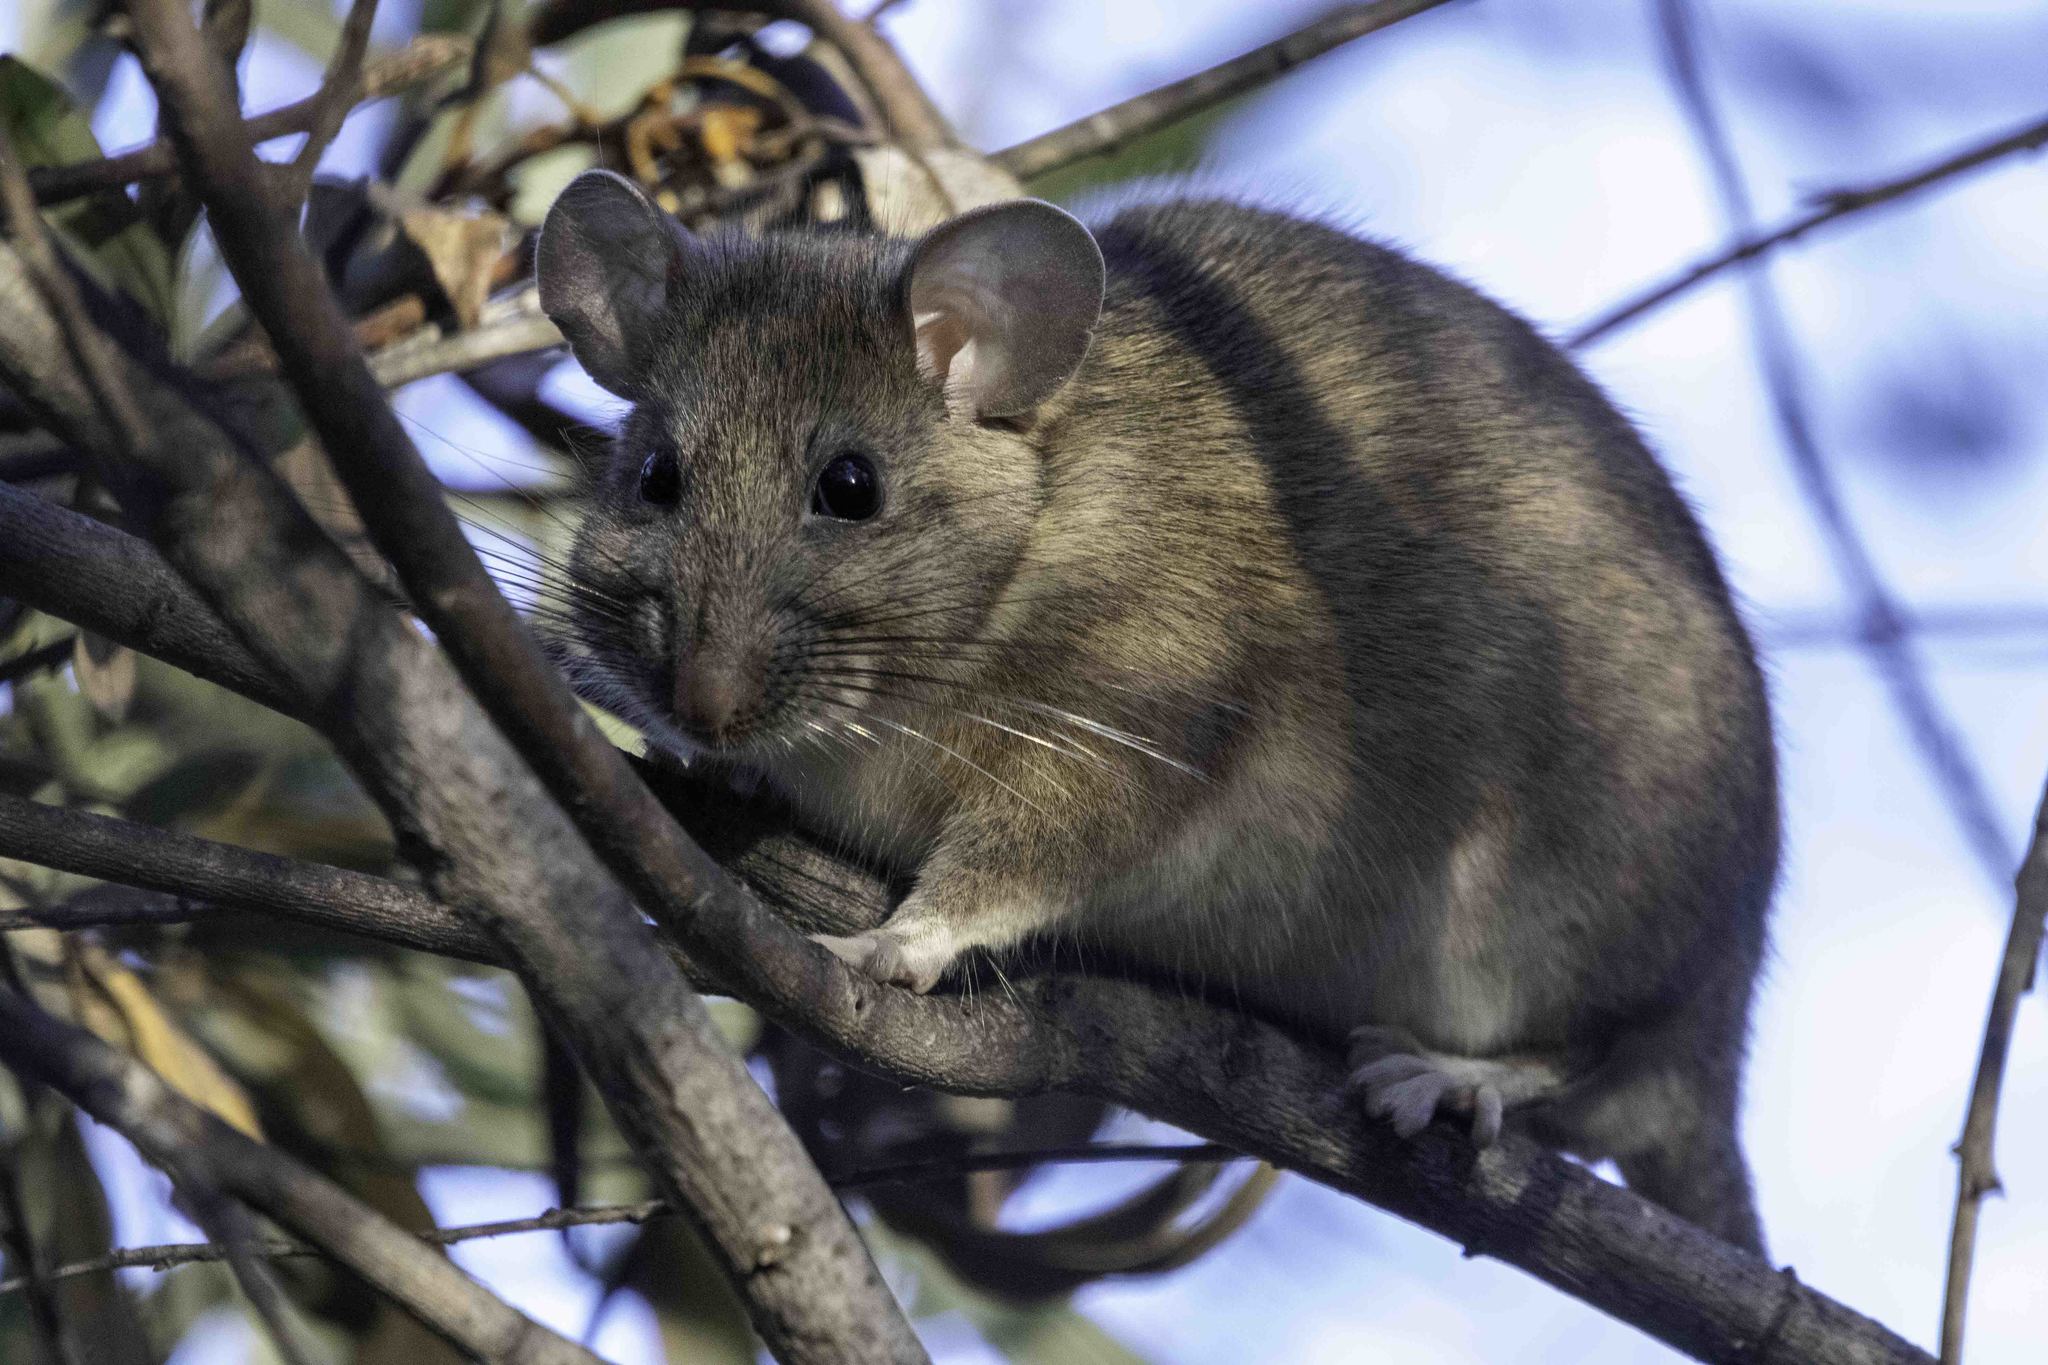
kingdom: Animalia
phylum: Chordata
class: Mammalia
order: Rodentia
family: Cricetidae
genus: Neotoma
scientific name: Neotoma macrotis
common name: Big-eared woodrat
